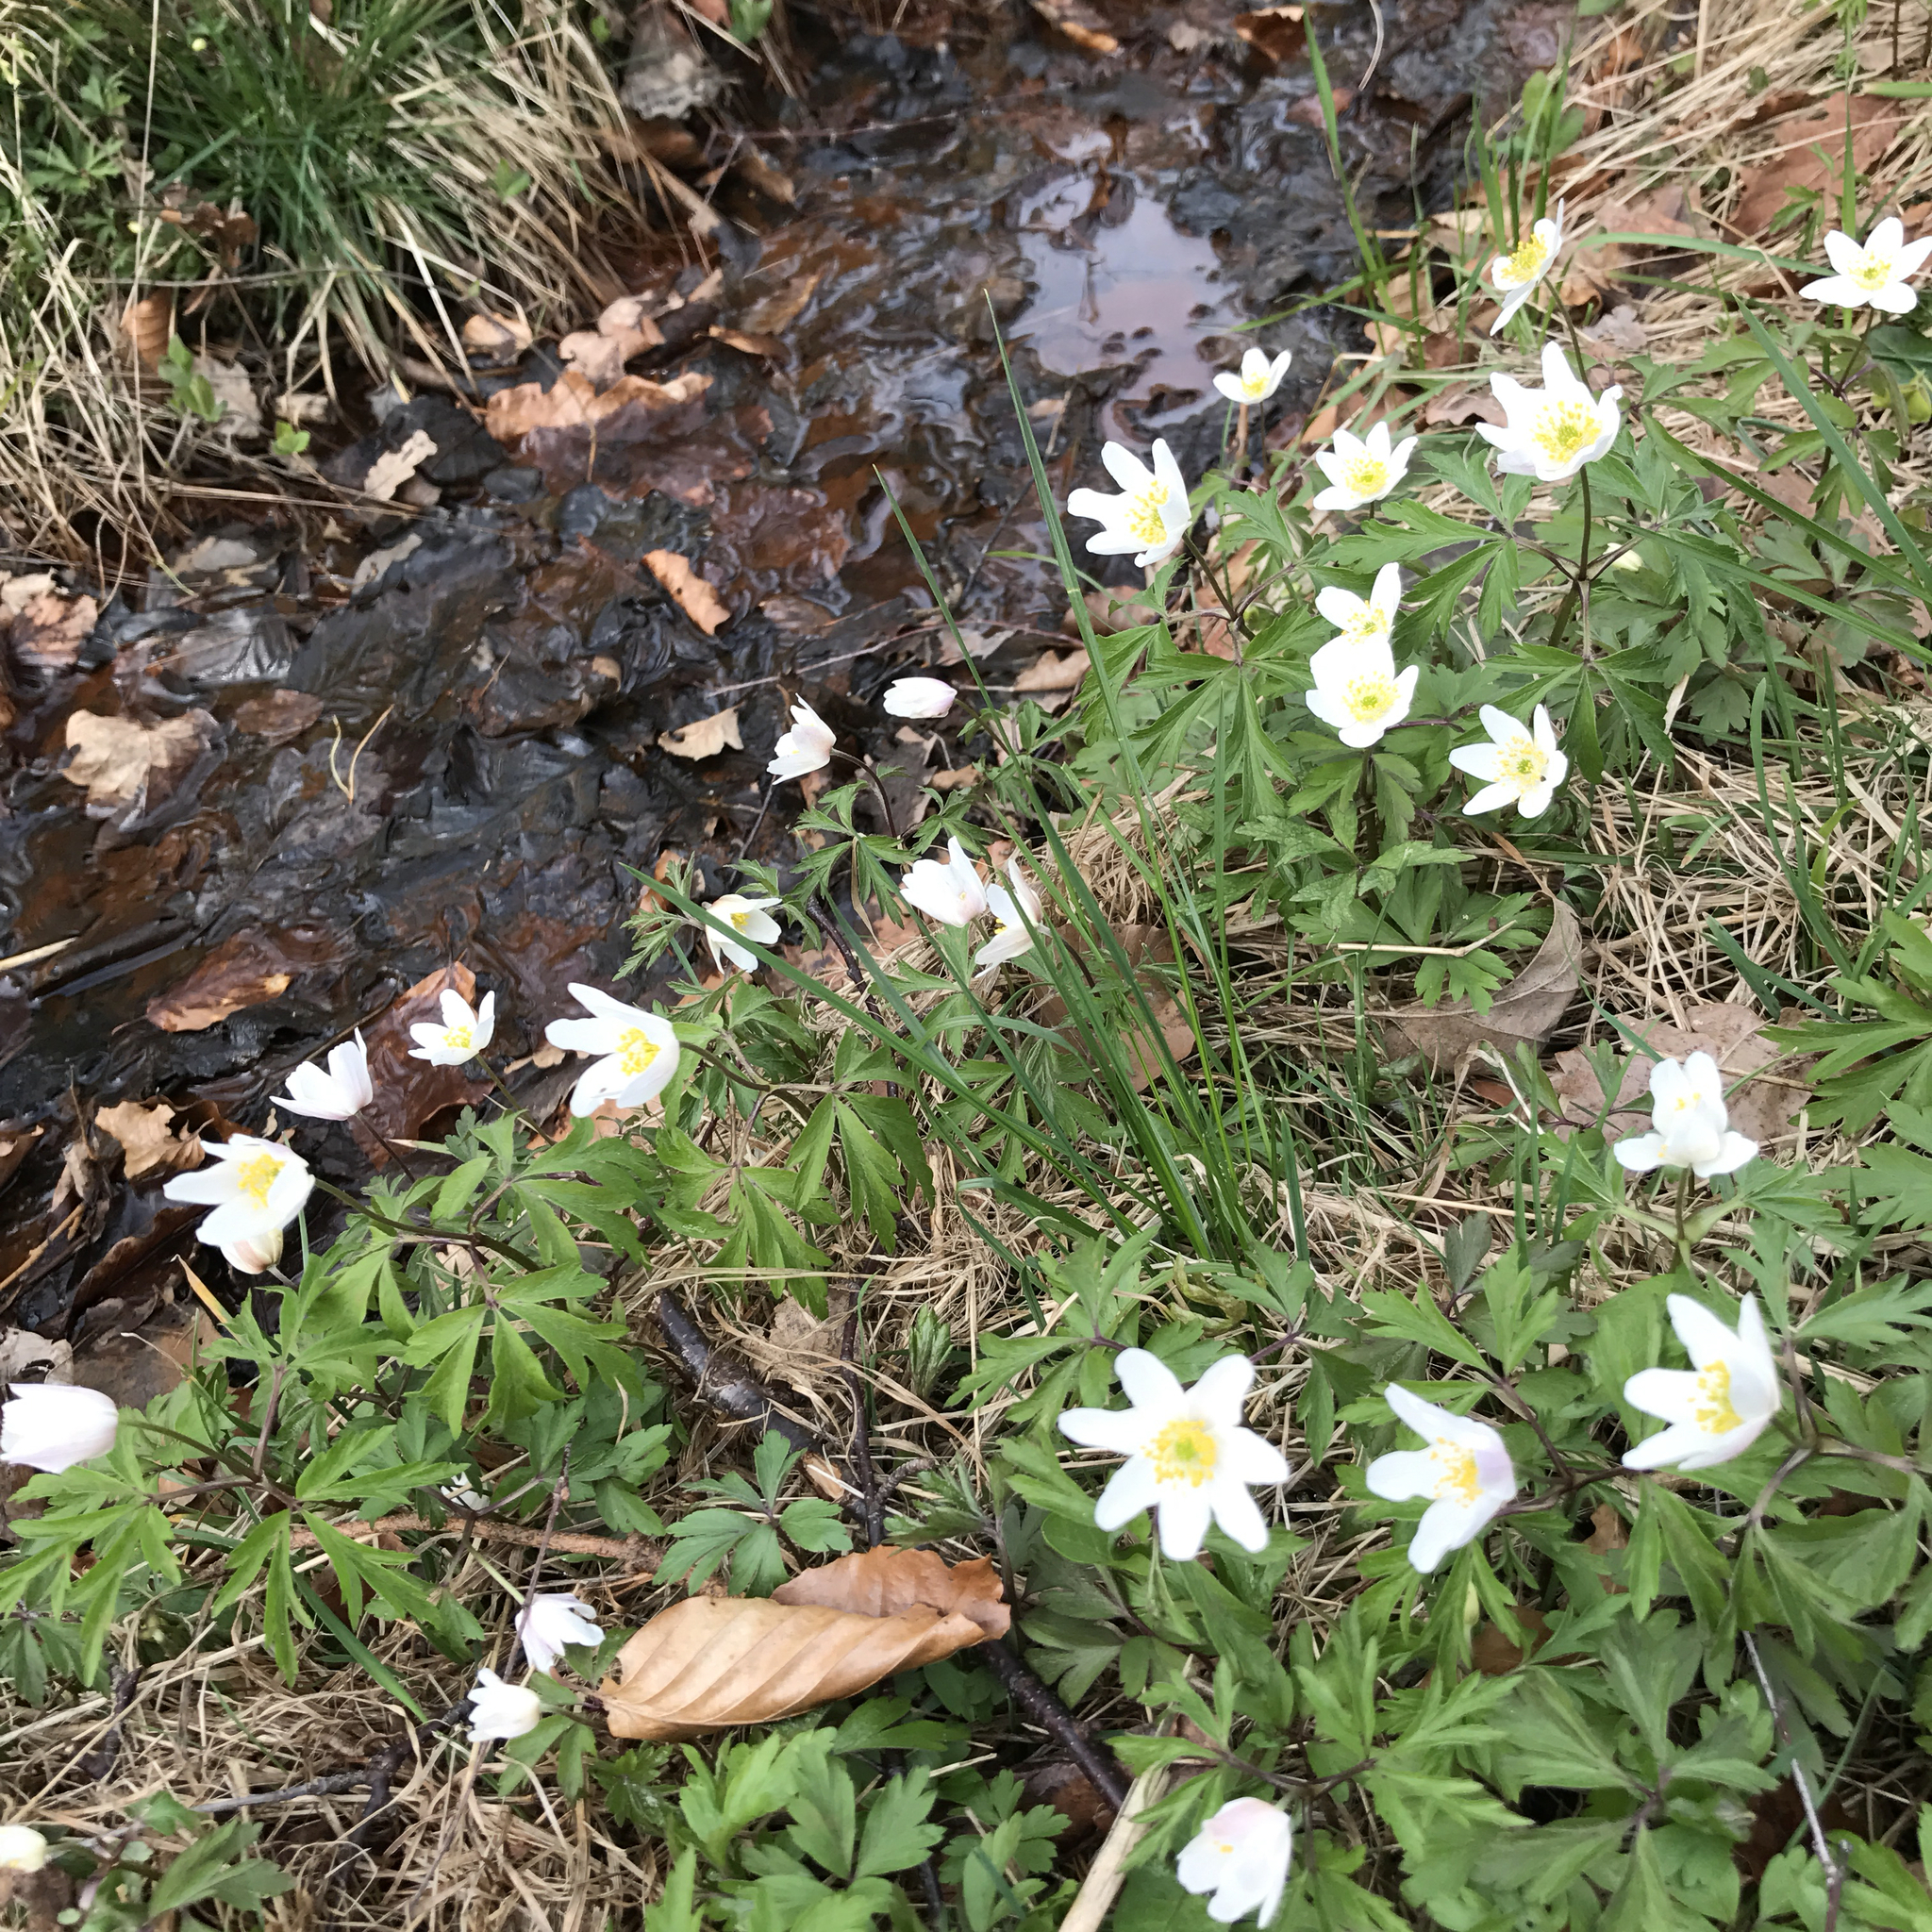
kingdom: Plantae
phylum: Tracheophyta
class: Magnoliopsida
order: Ranunculales
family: Ranunculaceae
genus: Anemone
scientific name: Anemone nemorosa
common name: Wood anemone
